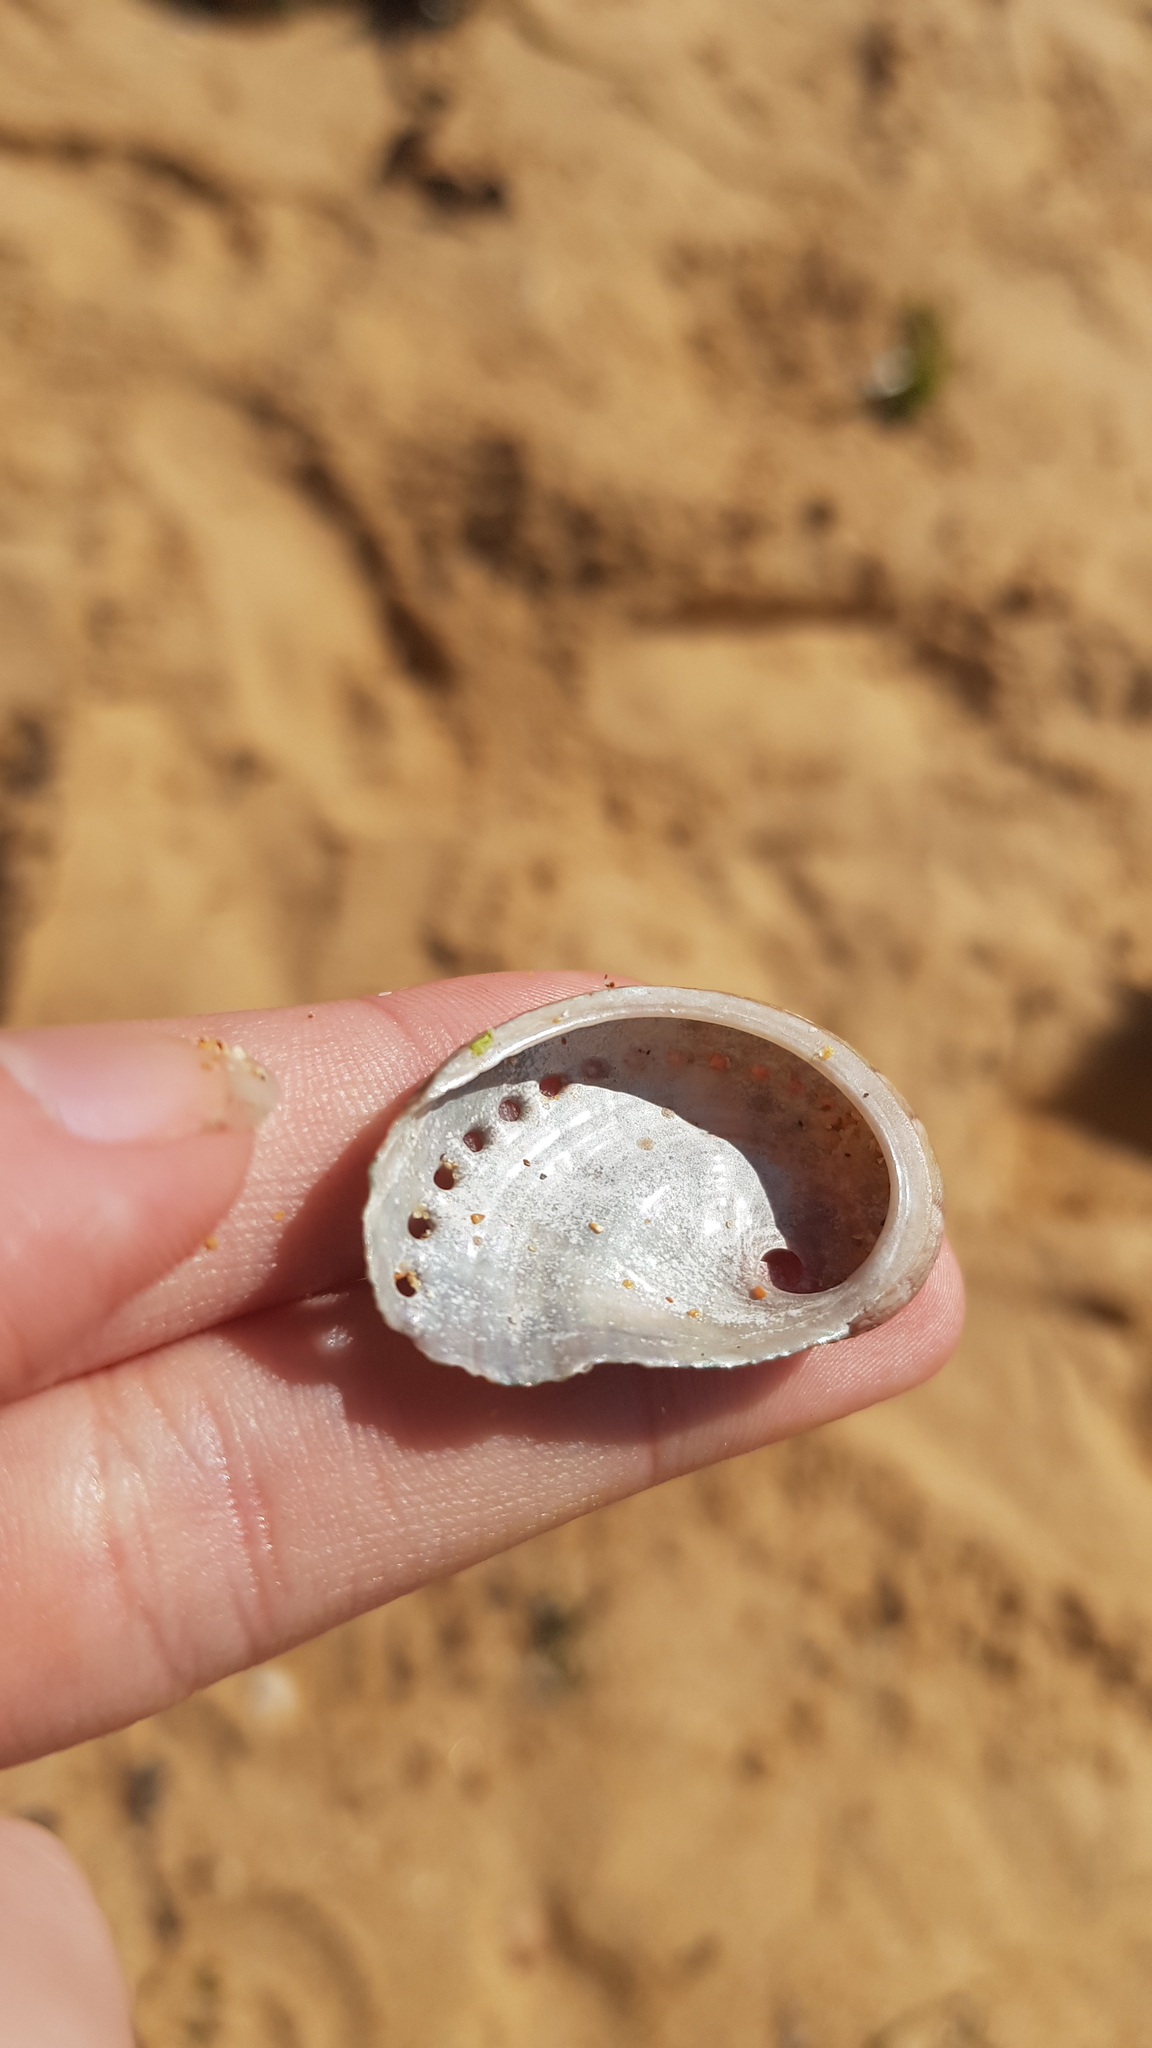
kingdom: Animalia
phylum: Mollusca
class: Gastropoda
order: Lepetellida
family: Haliotidae
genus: Haliotis
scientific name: Haliotis coccoradiata
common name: Reddish-rayed abalone
